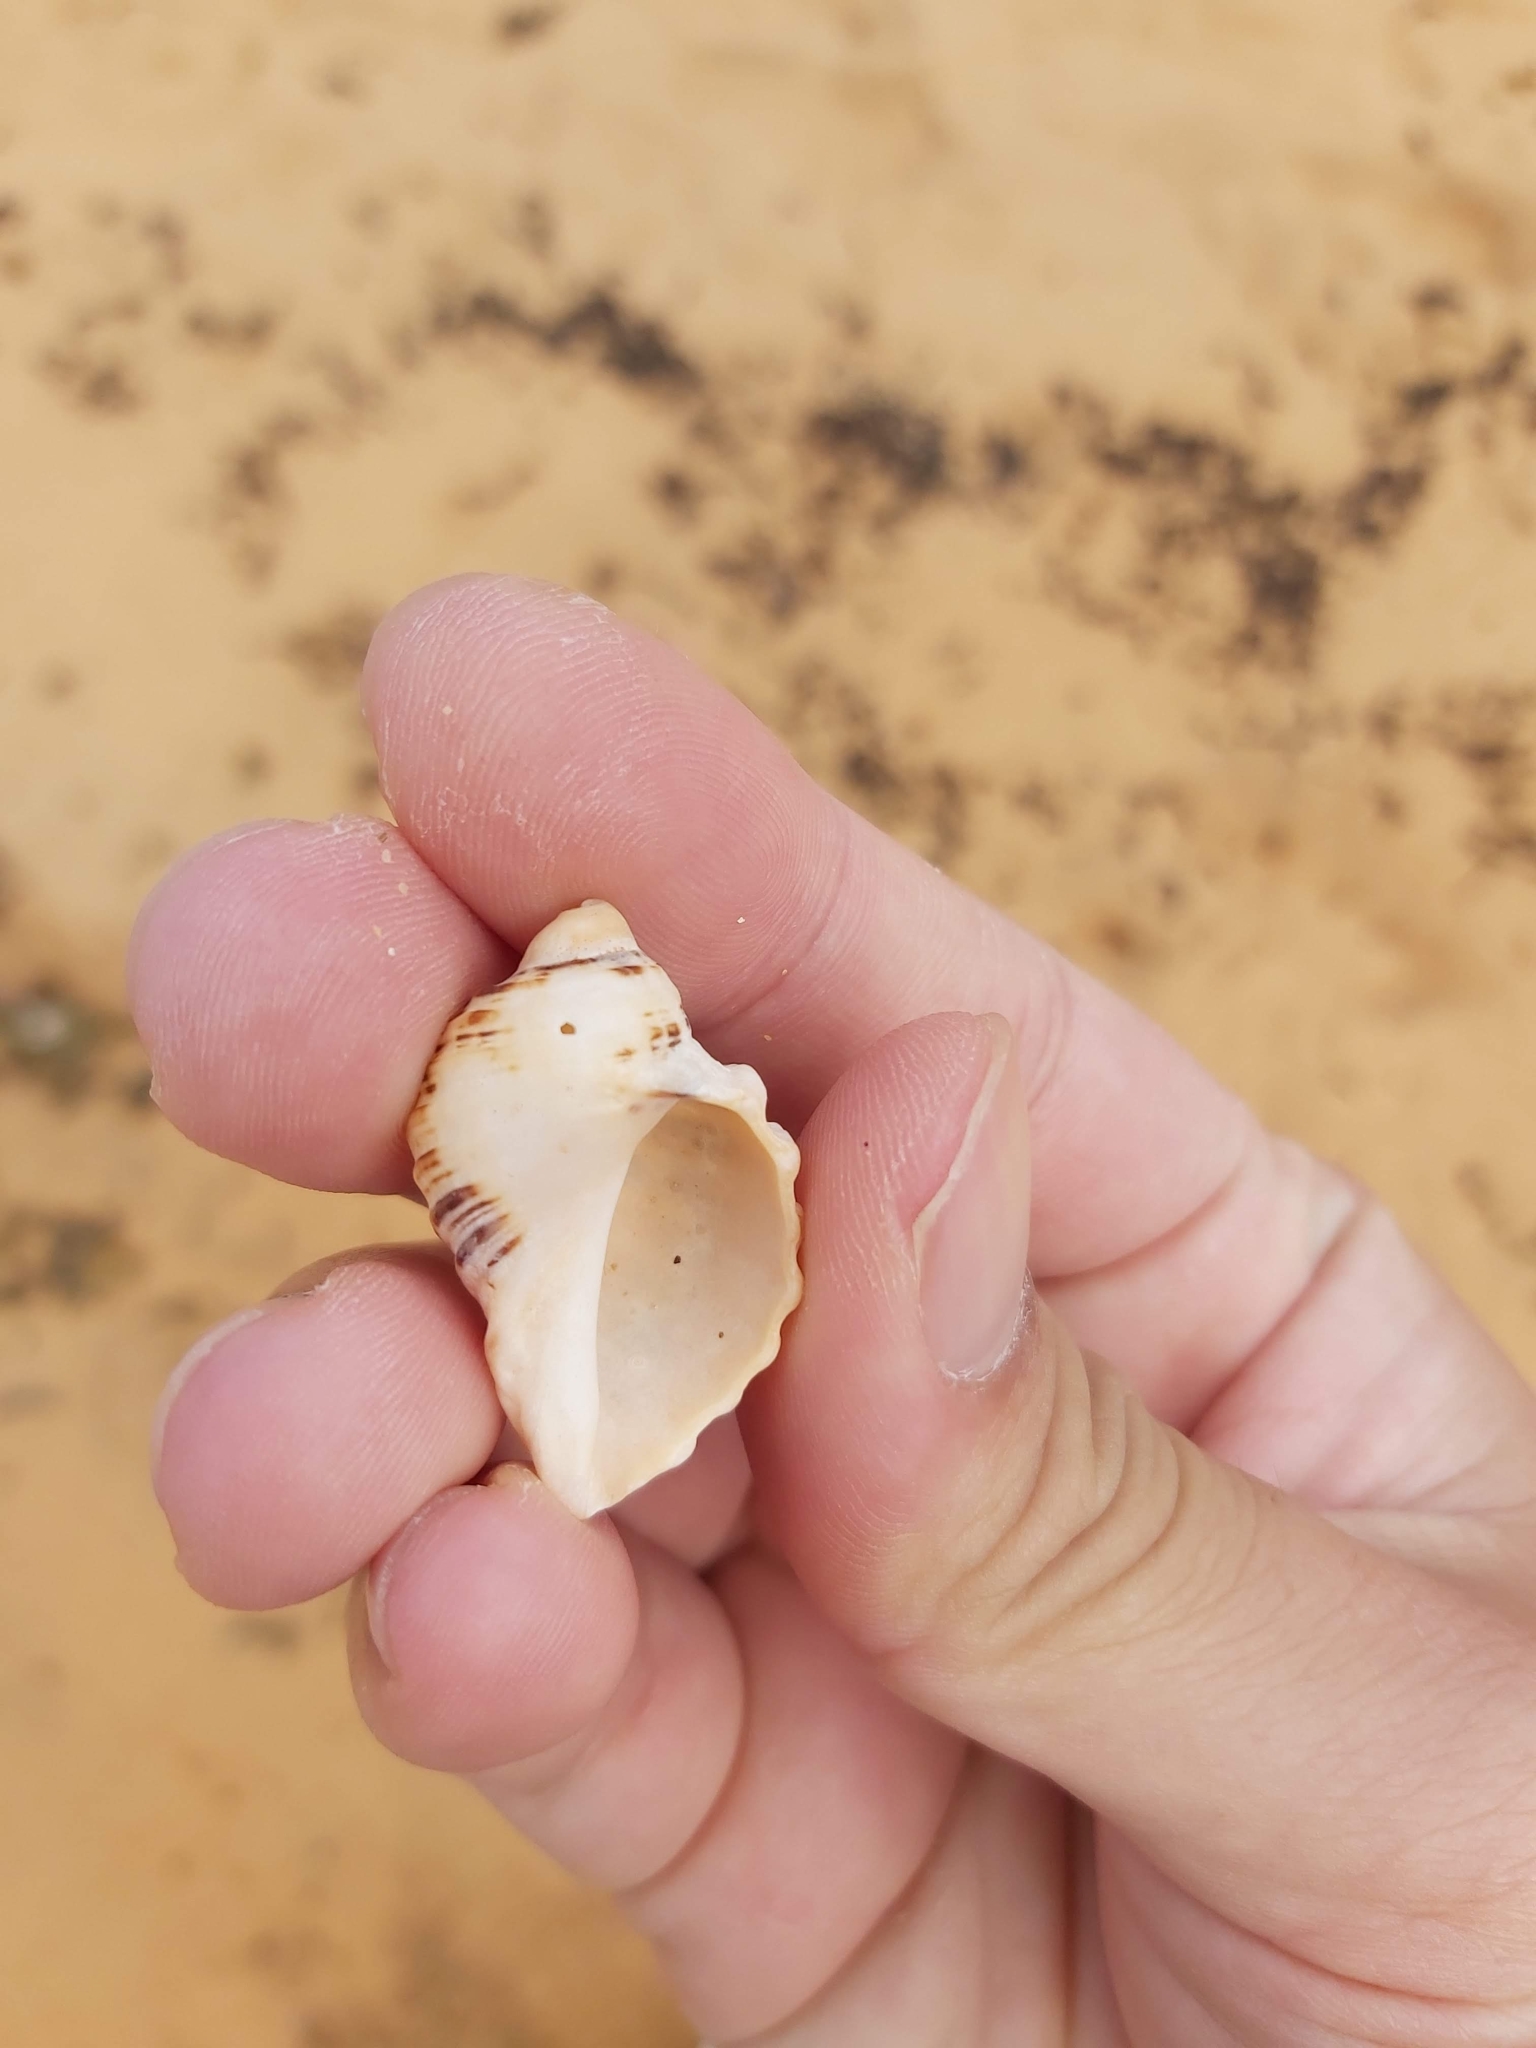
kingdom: Animalia
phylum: Mollusca
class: Gastropoda
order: Neogastropoda
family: Muricidae
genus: Dicathais
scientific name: Dicathais orbita
